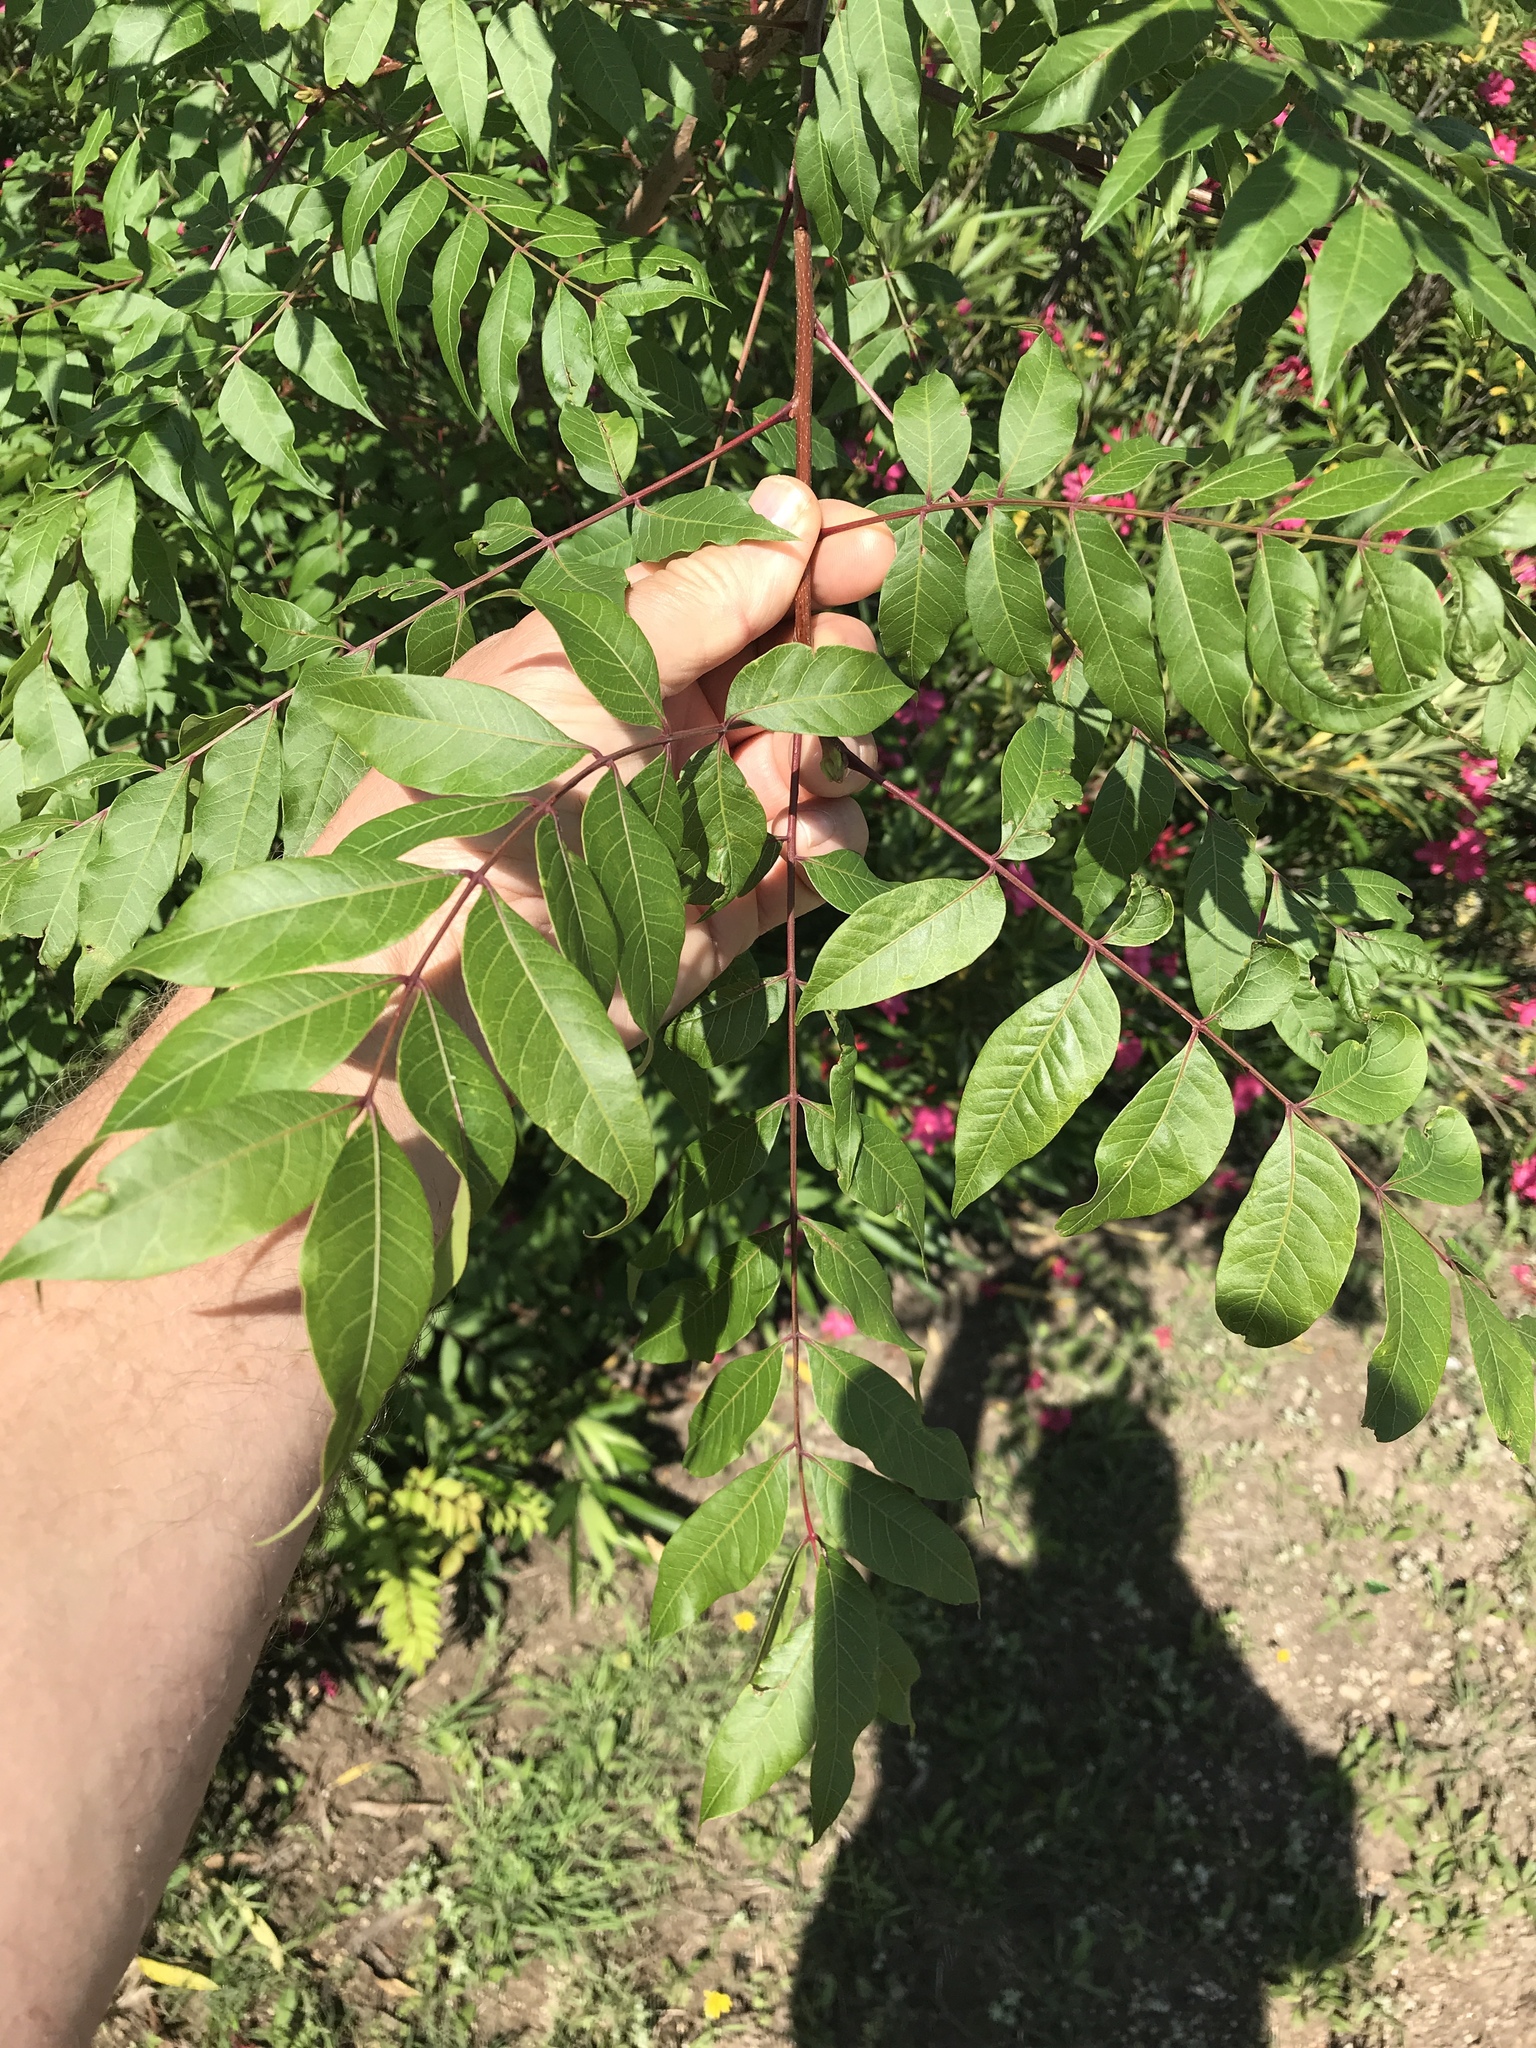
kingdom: Plantae
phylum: Tracheophyta
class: Magnoliopsida
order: Sapindales
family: Anacardiaceae
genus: Pistacia
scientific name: Pistacia chinensis
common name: Chinese pistache
